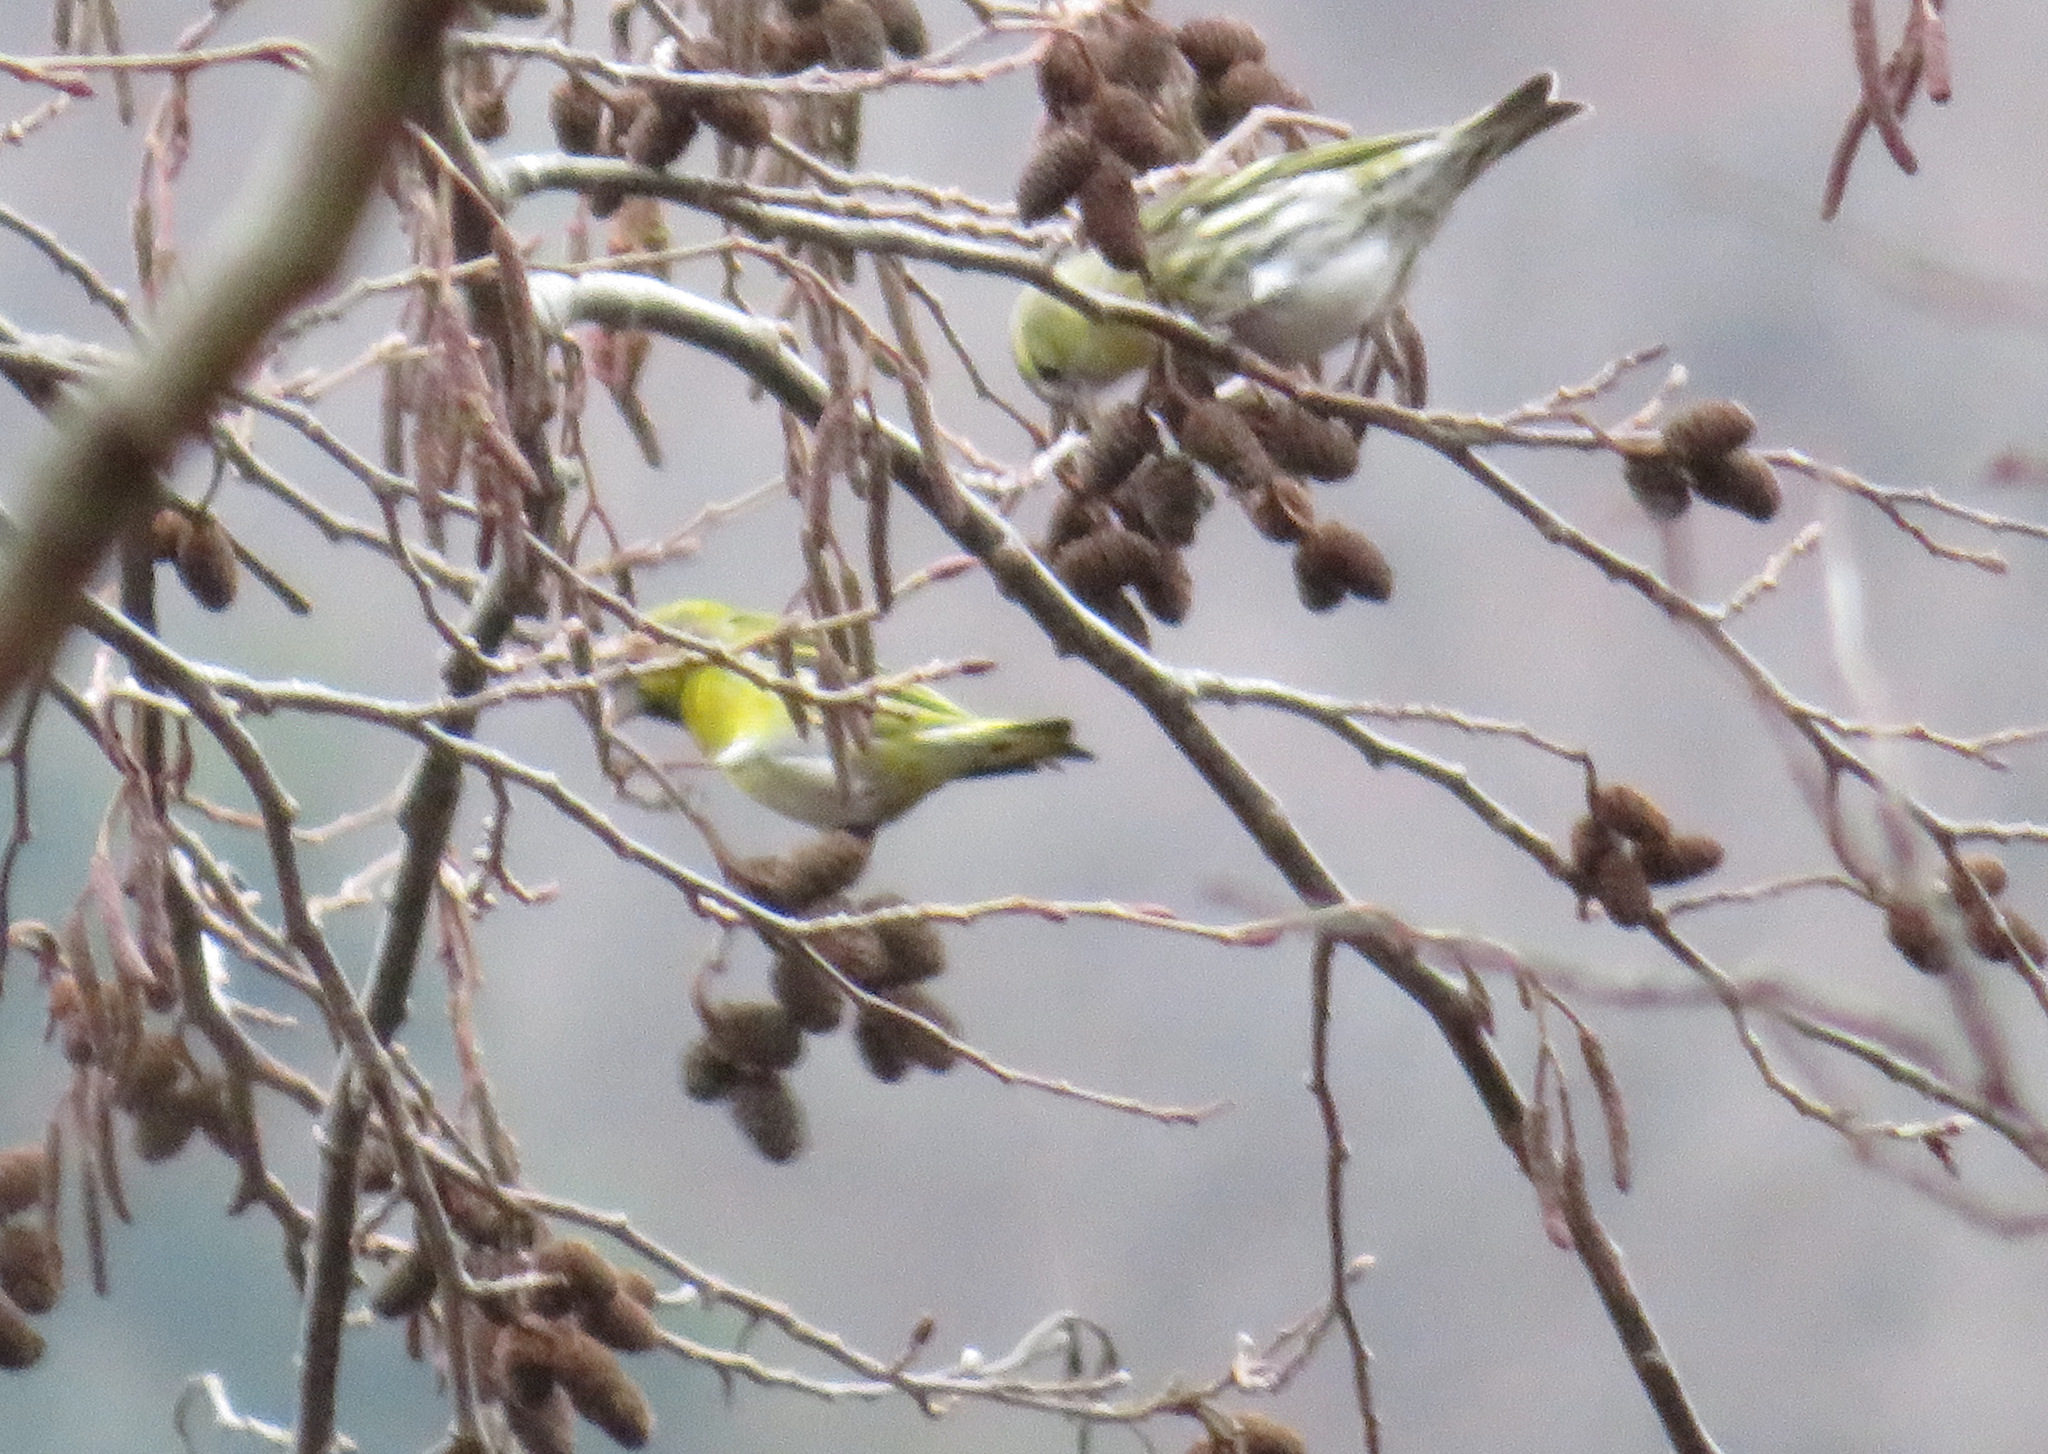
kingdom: Animalia
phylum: Chordata
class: Aves
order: Passeriformes
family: Fringillidae
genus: Spinus
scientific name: Spinus spinus
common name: Eurasian siskin
